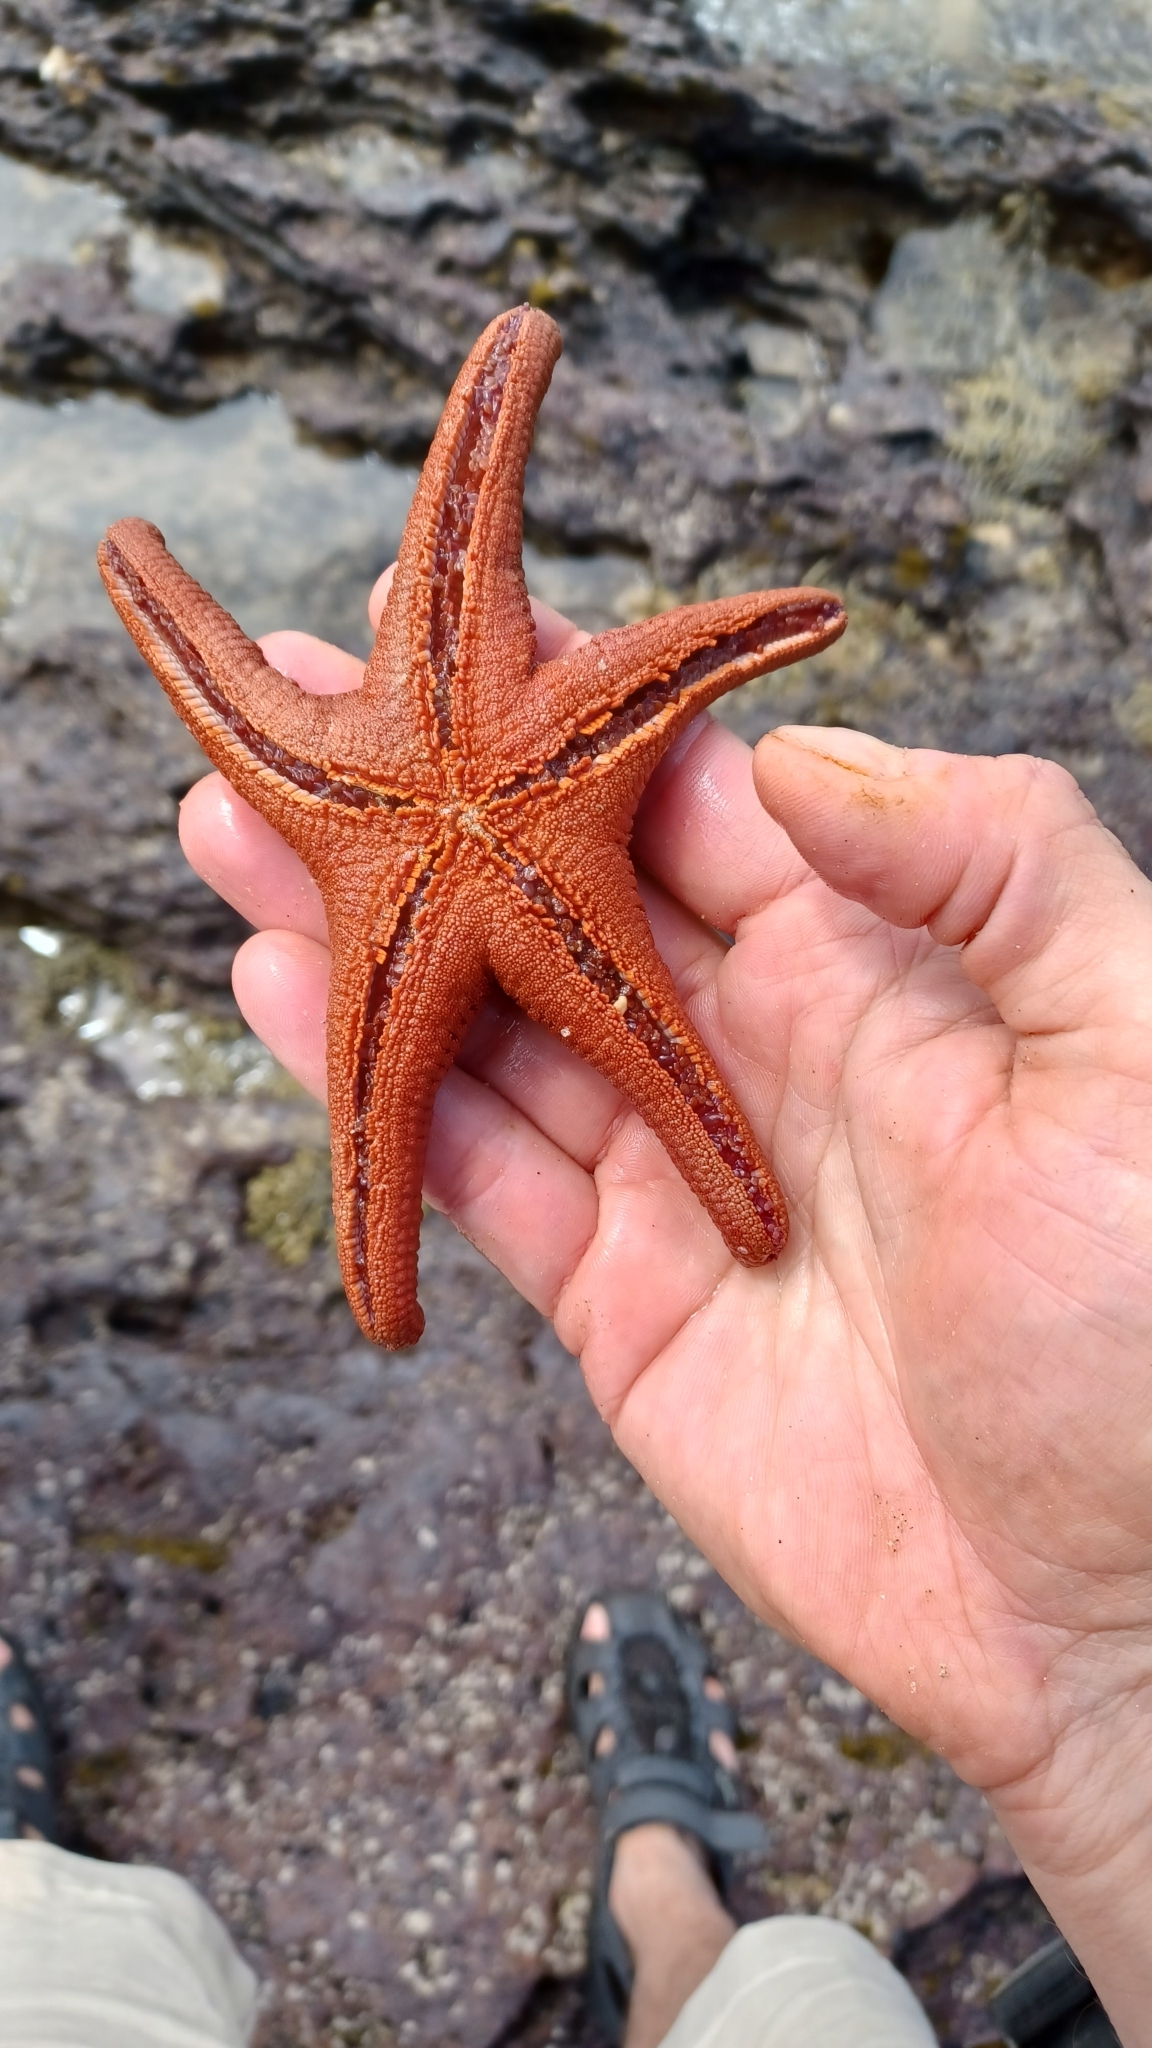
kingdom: Animalia
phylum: Echinodermata
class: Asteroidea
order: Valvatida
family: Goniasteridae
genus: Nectria
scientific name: Nectria ocellata
